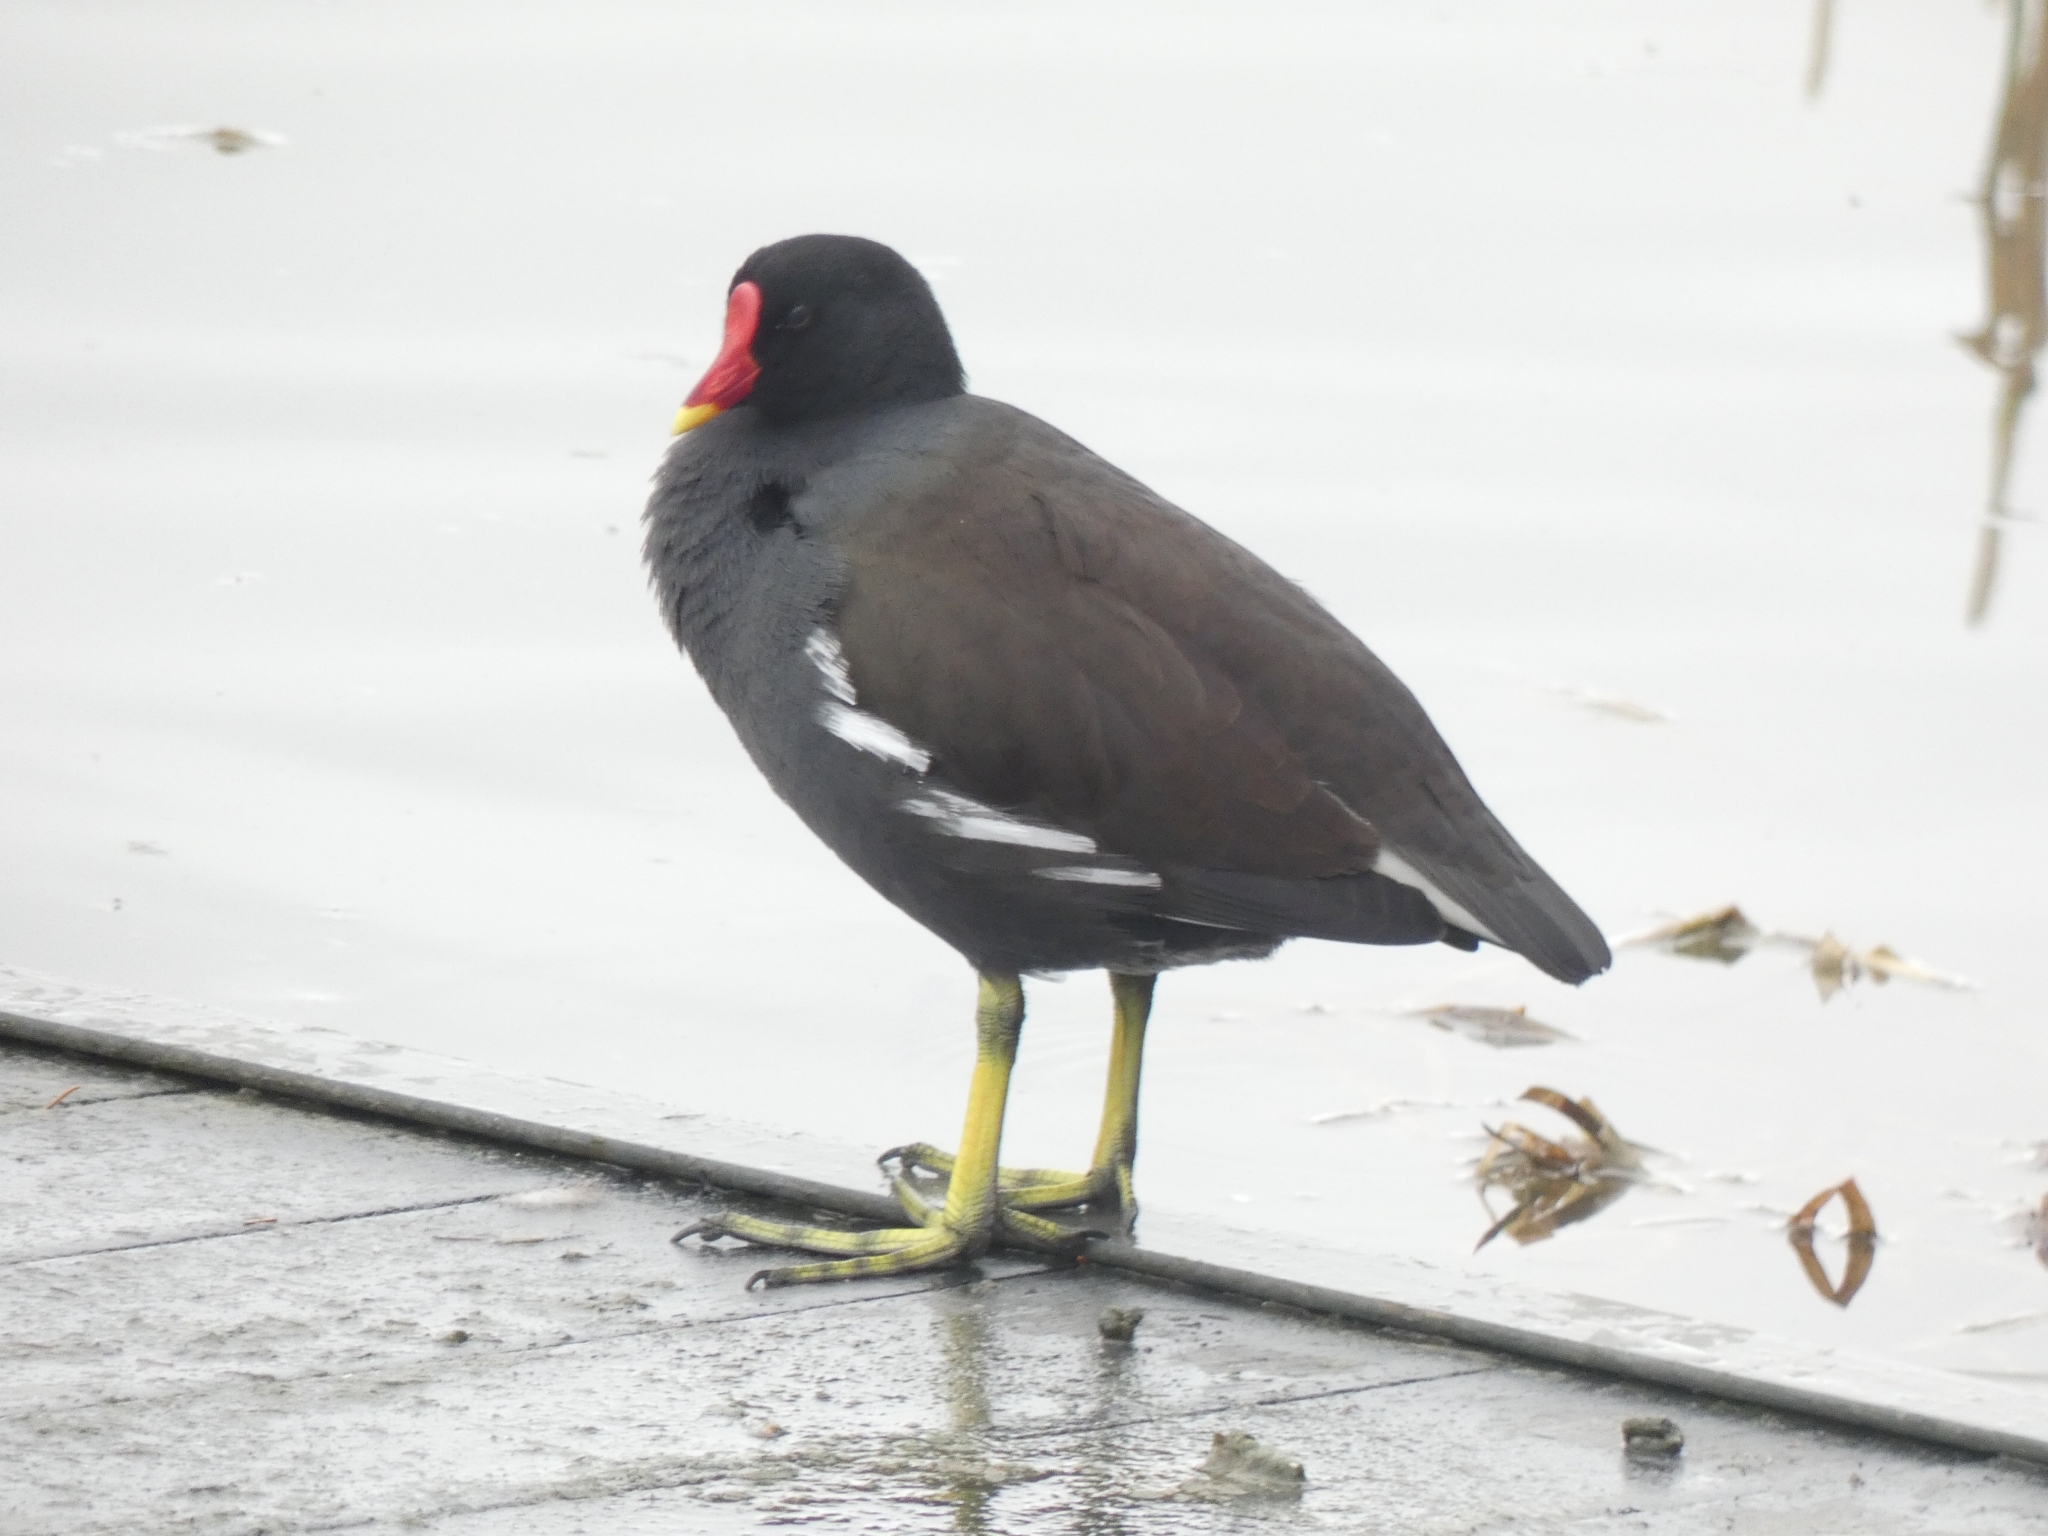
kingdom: Animalia
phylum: Chordata
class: Aves
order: Gruiformes
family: Rallidae
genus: Gallinula
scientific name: Gallinula chloropus
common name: Common moorhen
